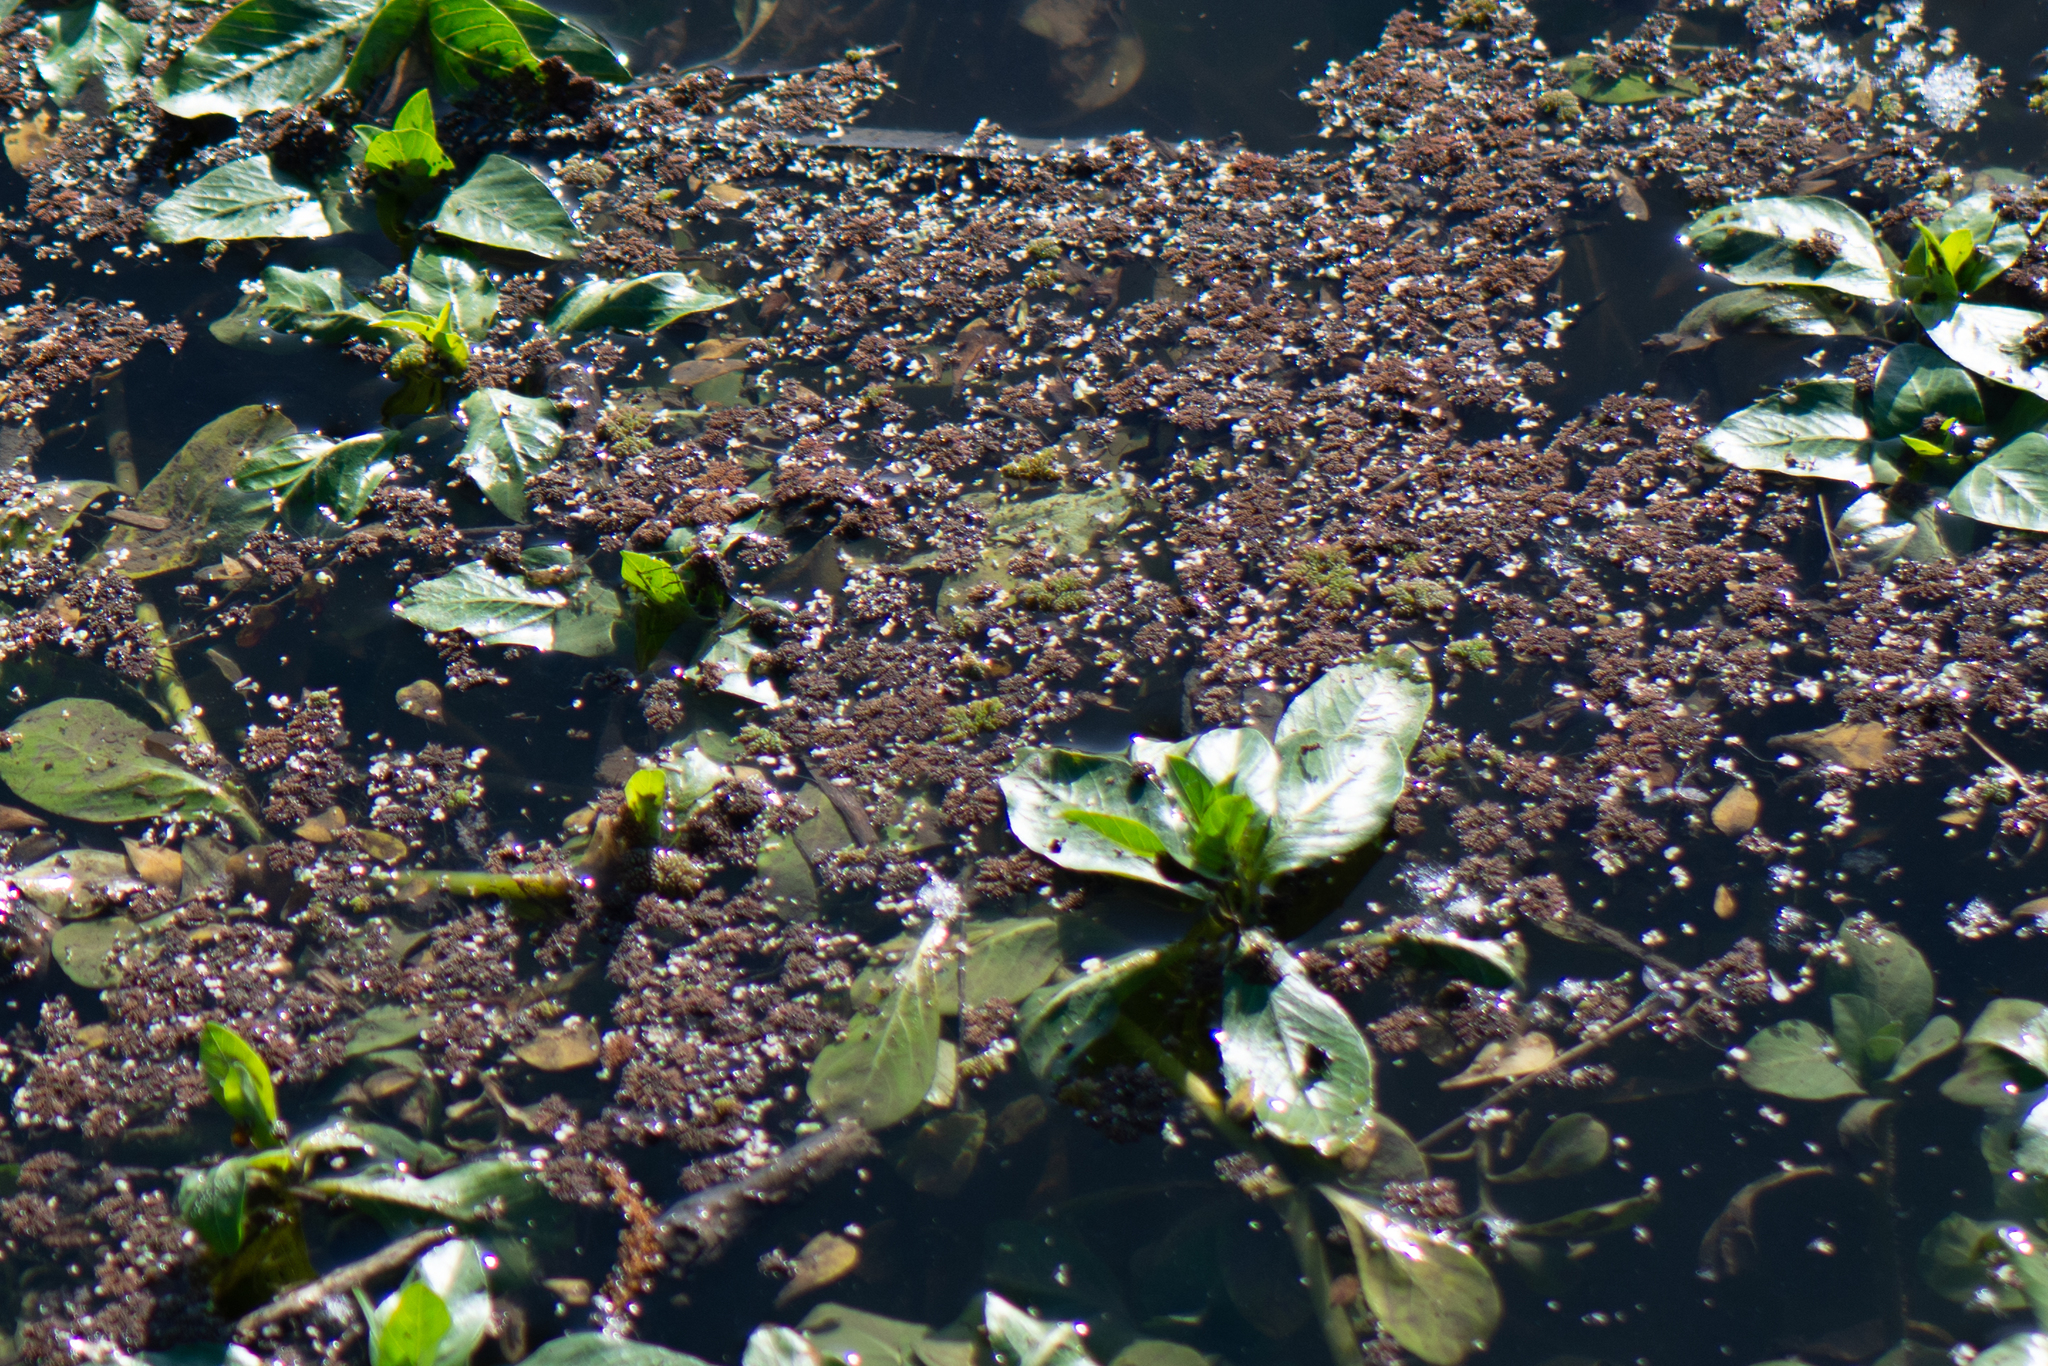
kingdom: Plantae
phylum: Tracheophyta
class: Polypodiopsida
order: Salviniales
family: Salviniaceae
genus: Azolla
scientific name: Azolla filiculoides
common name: Water fern
